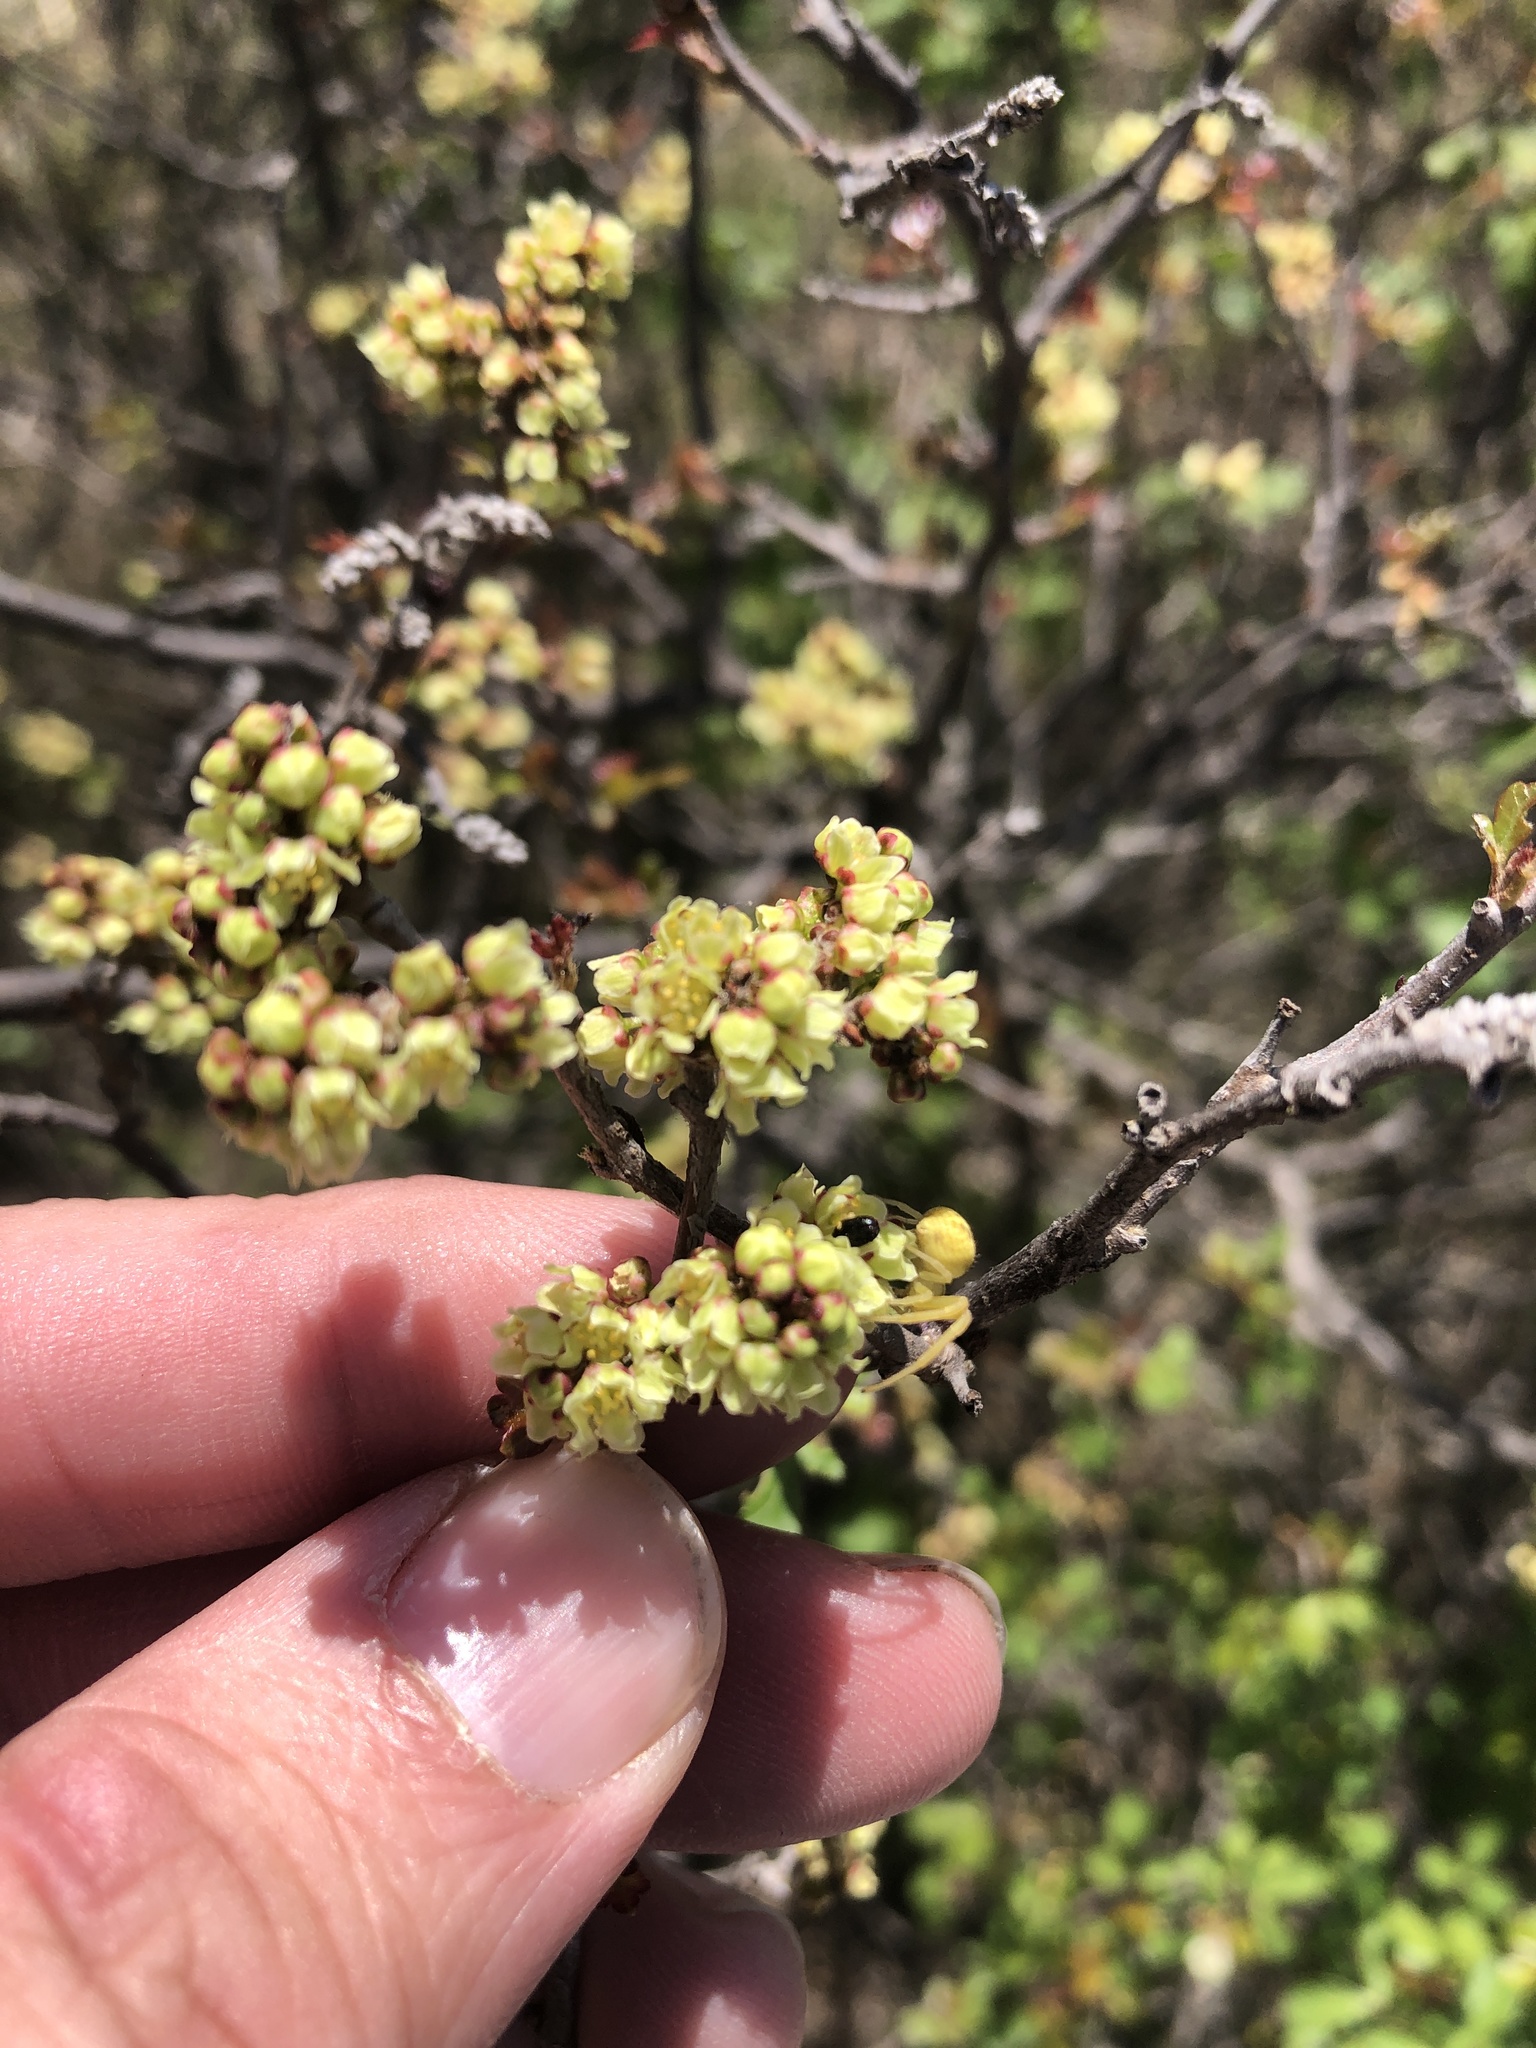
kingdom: Plantae
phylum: Tracheophyta
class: Magnoliopsida
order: Sapindales
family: Anacardiaceae
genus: Rhus
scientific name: Rhus aromatica
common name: Aromatic sumac
